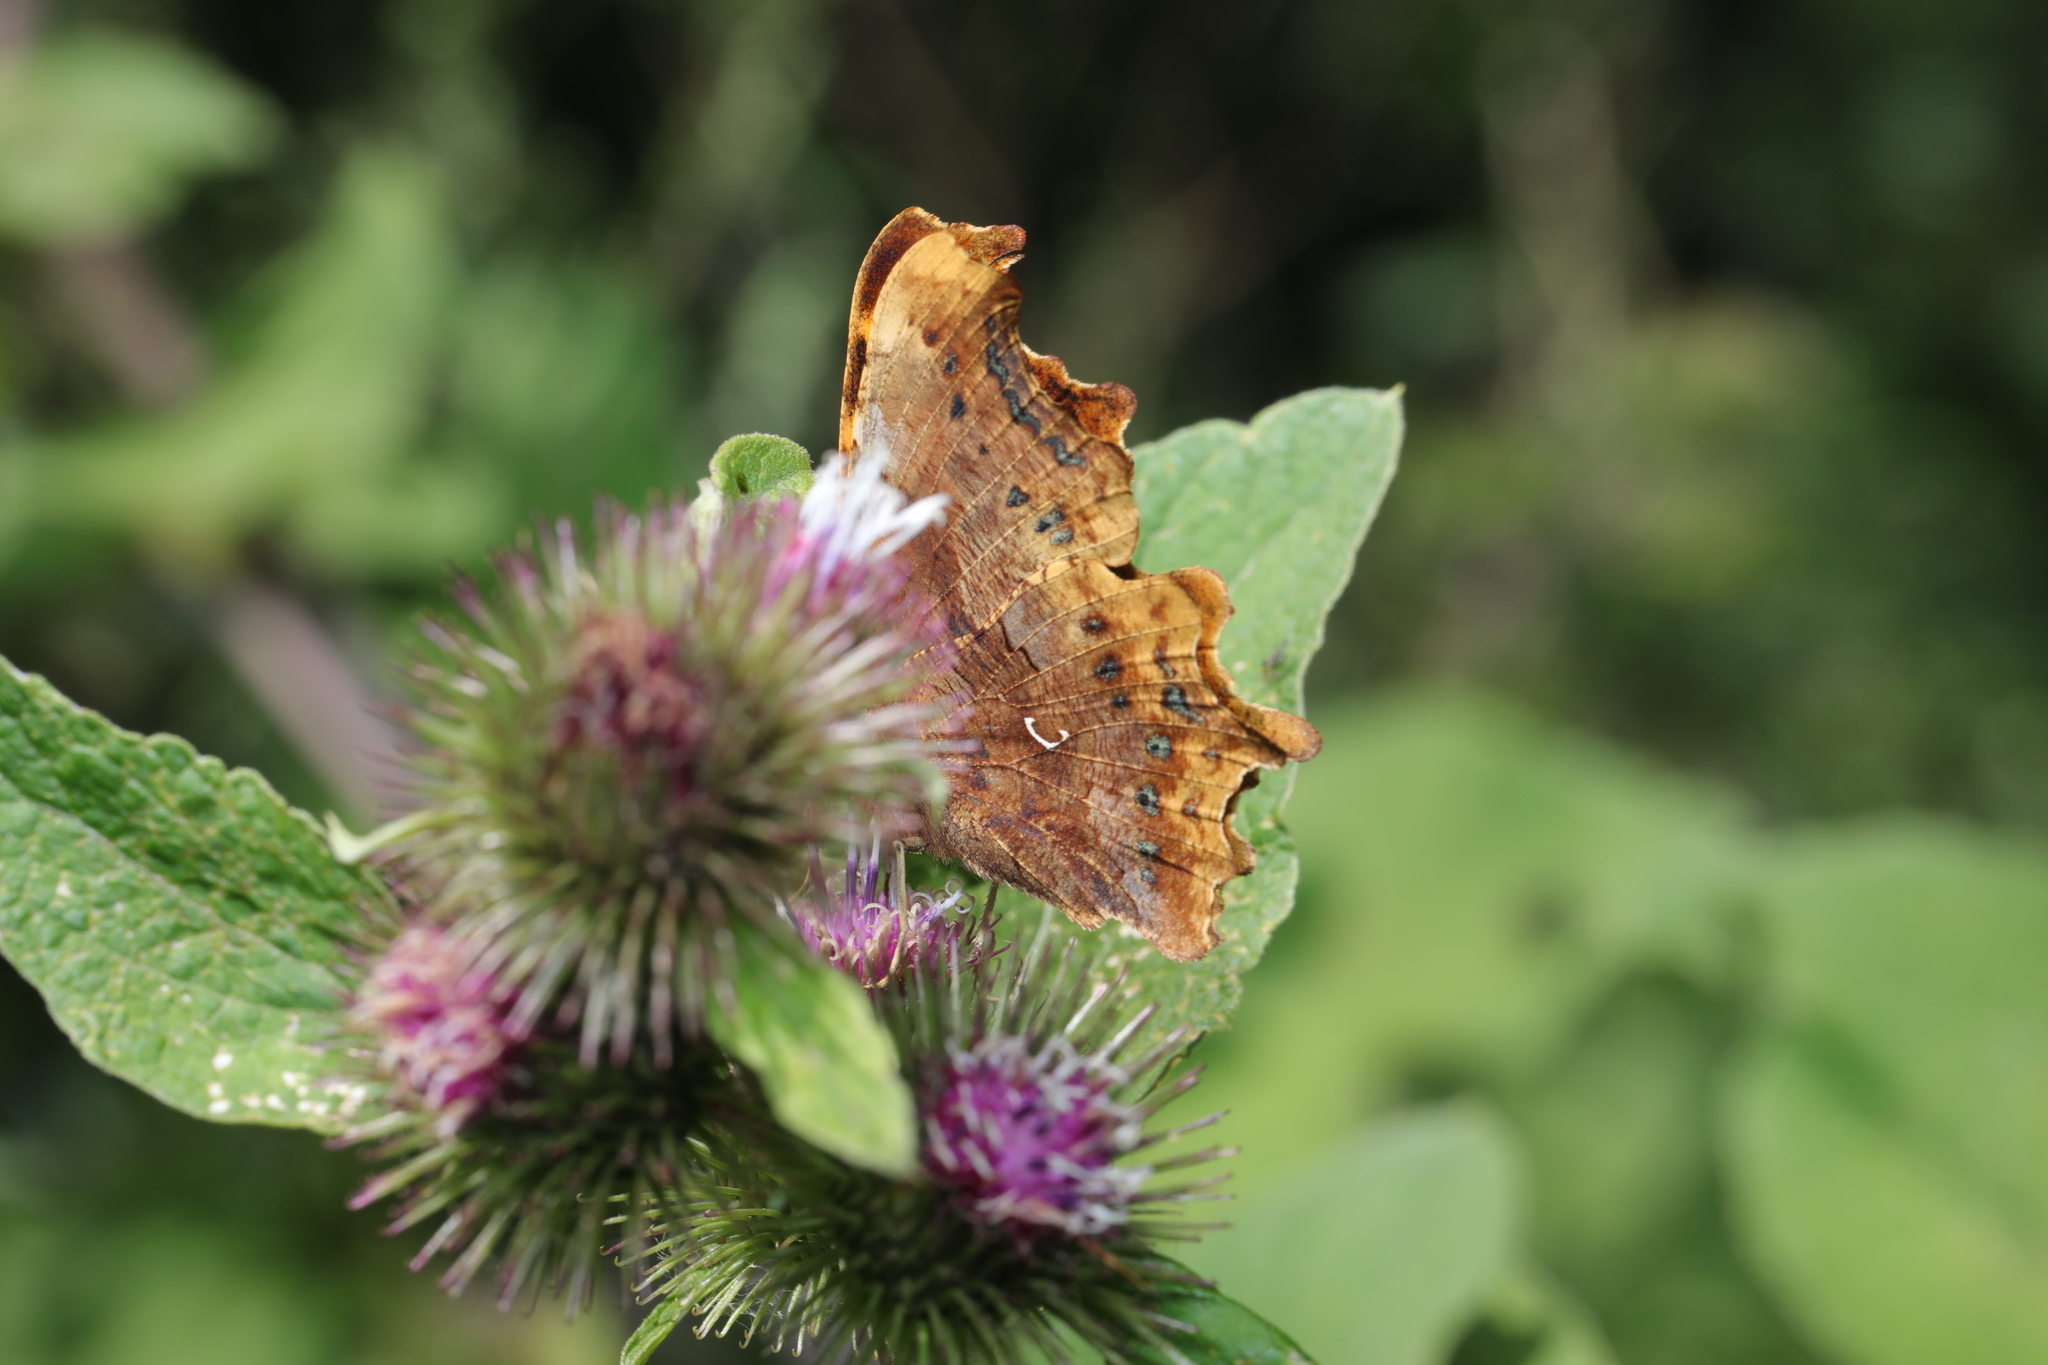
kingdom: Animalia
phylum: Arthropoda
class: Insecta
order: Lepidoptera
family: Nymphalidae
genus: Polygonia
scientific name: Polygonia c-album
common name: Comma
